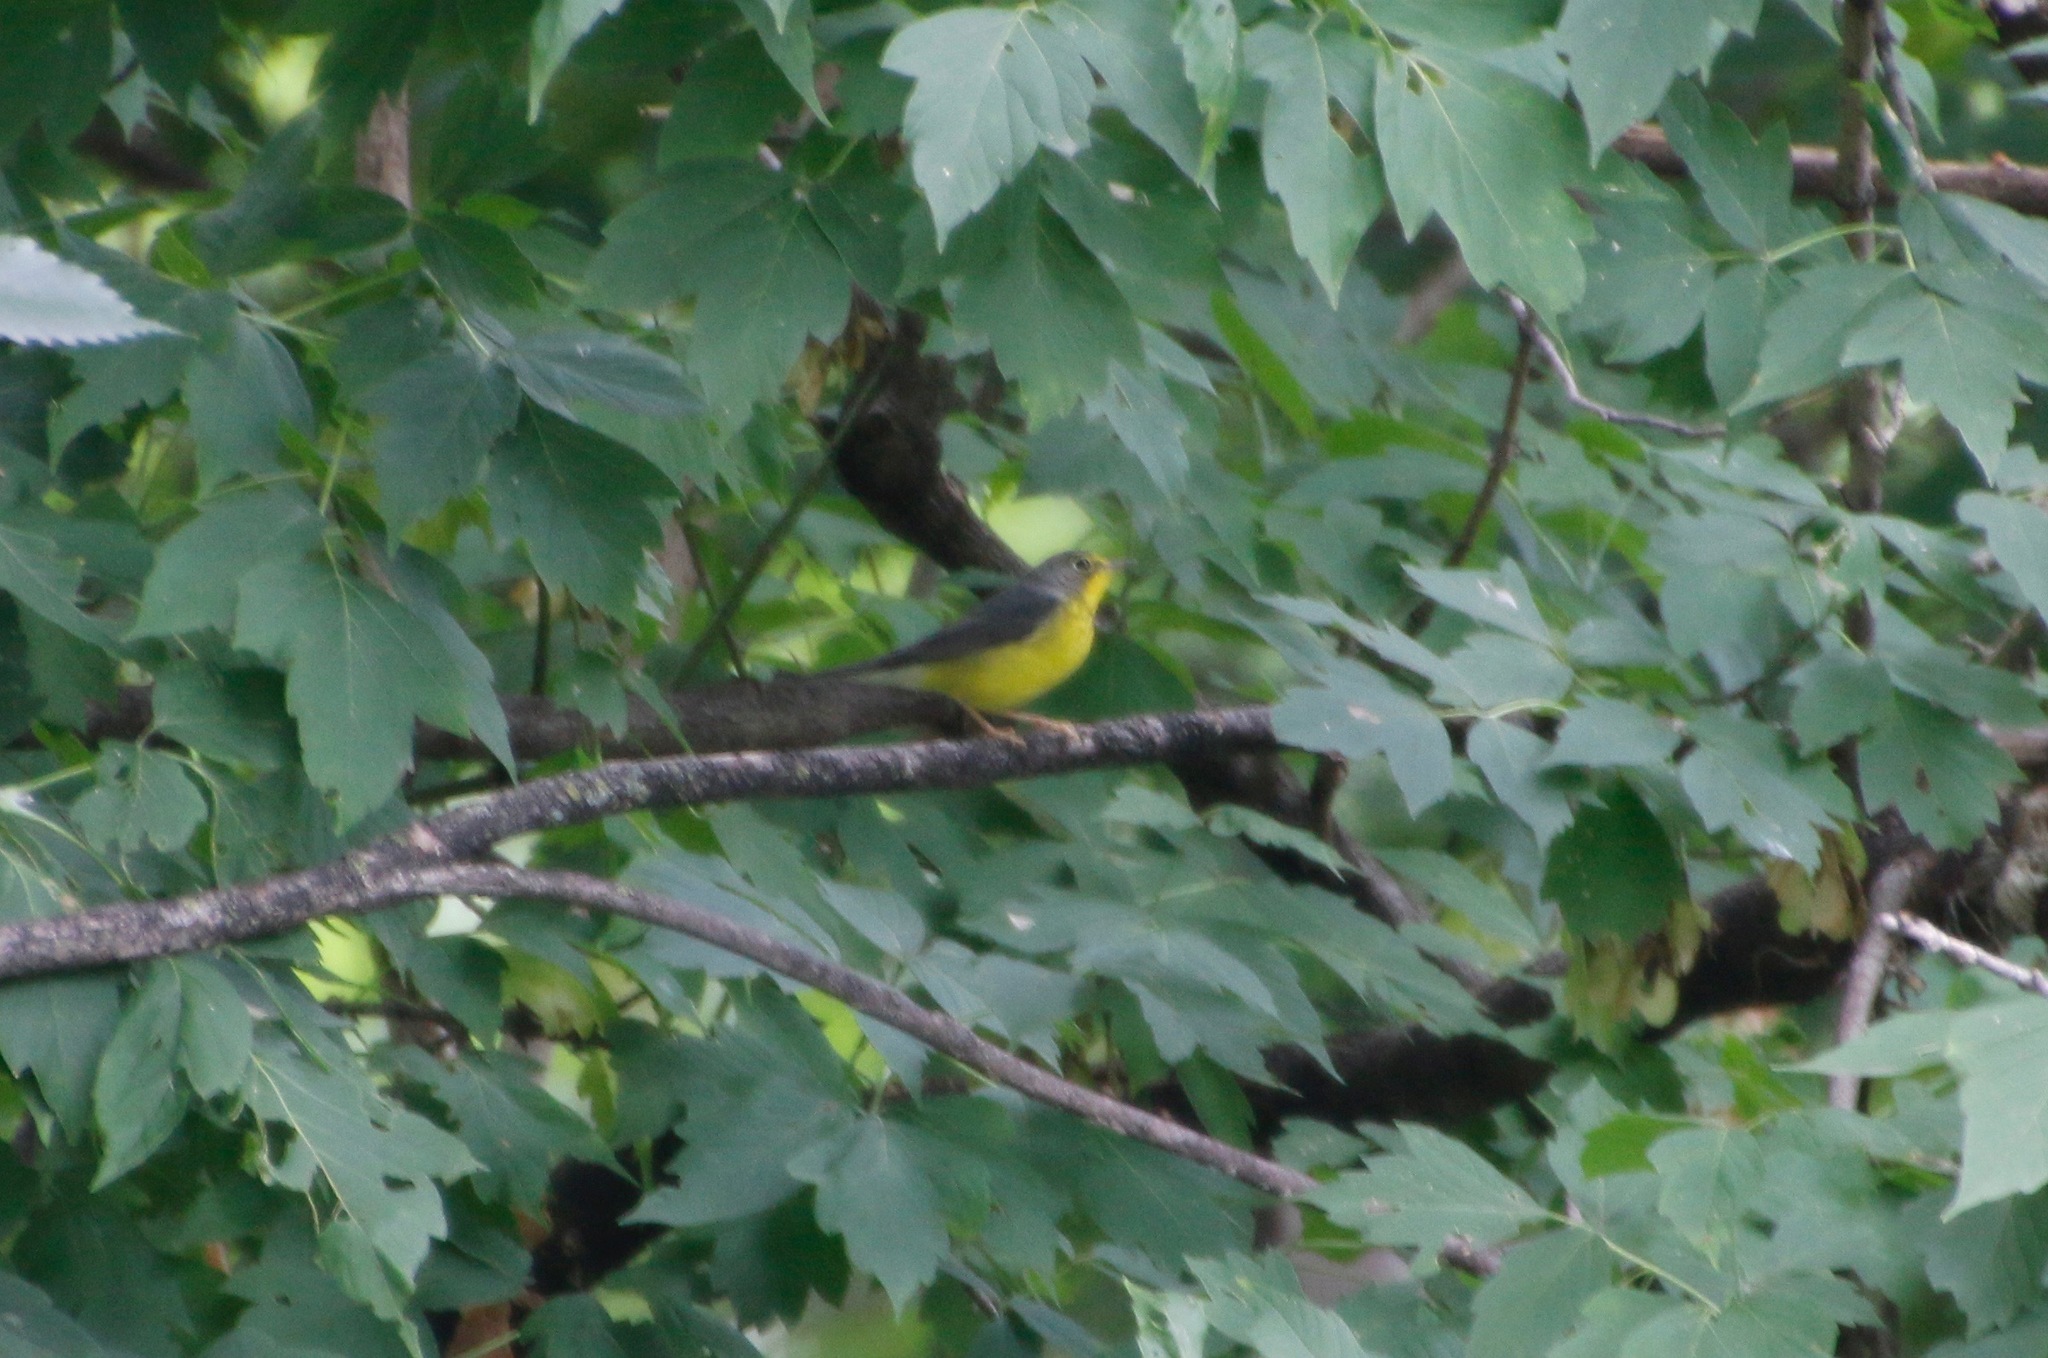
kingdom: Animalia
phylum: Chordata
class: Aves
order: Passeriformes
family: Parulidae
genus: Cardellina
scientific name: Cardellina canadensis
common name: Canada warbler
